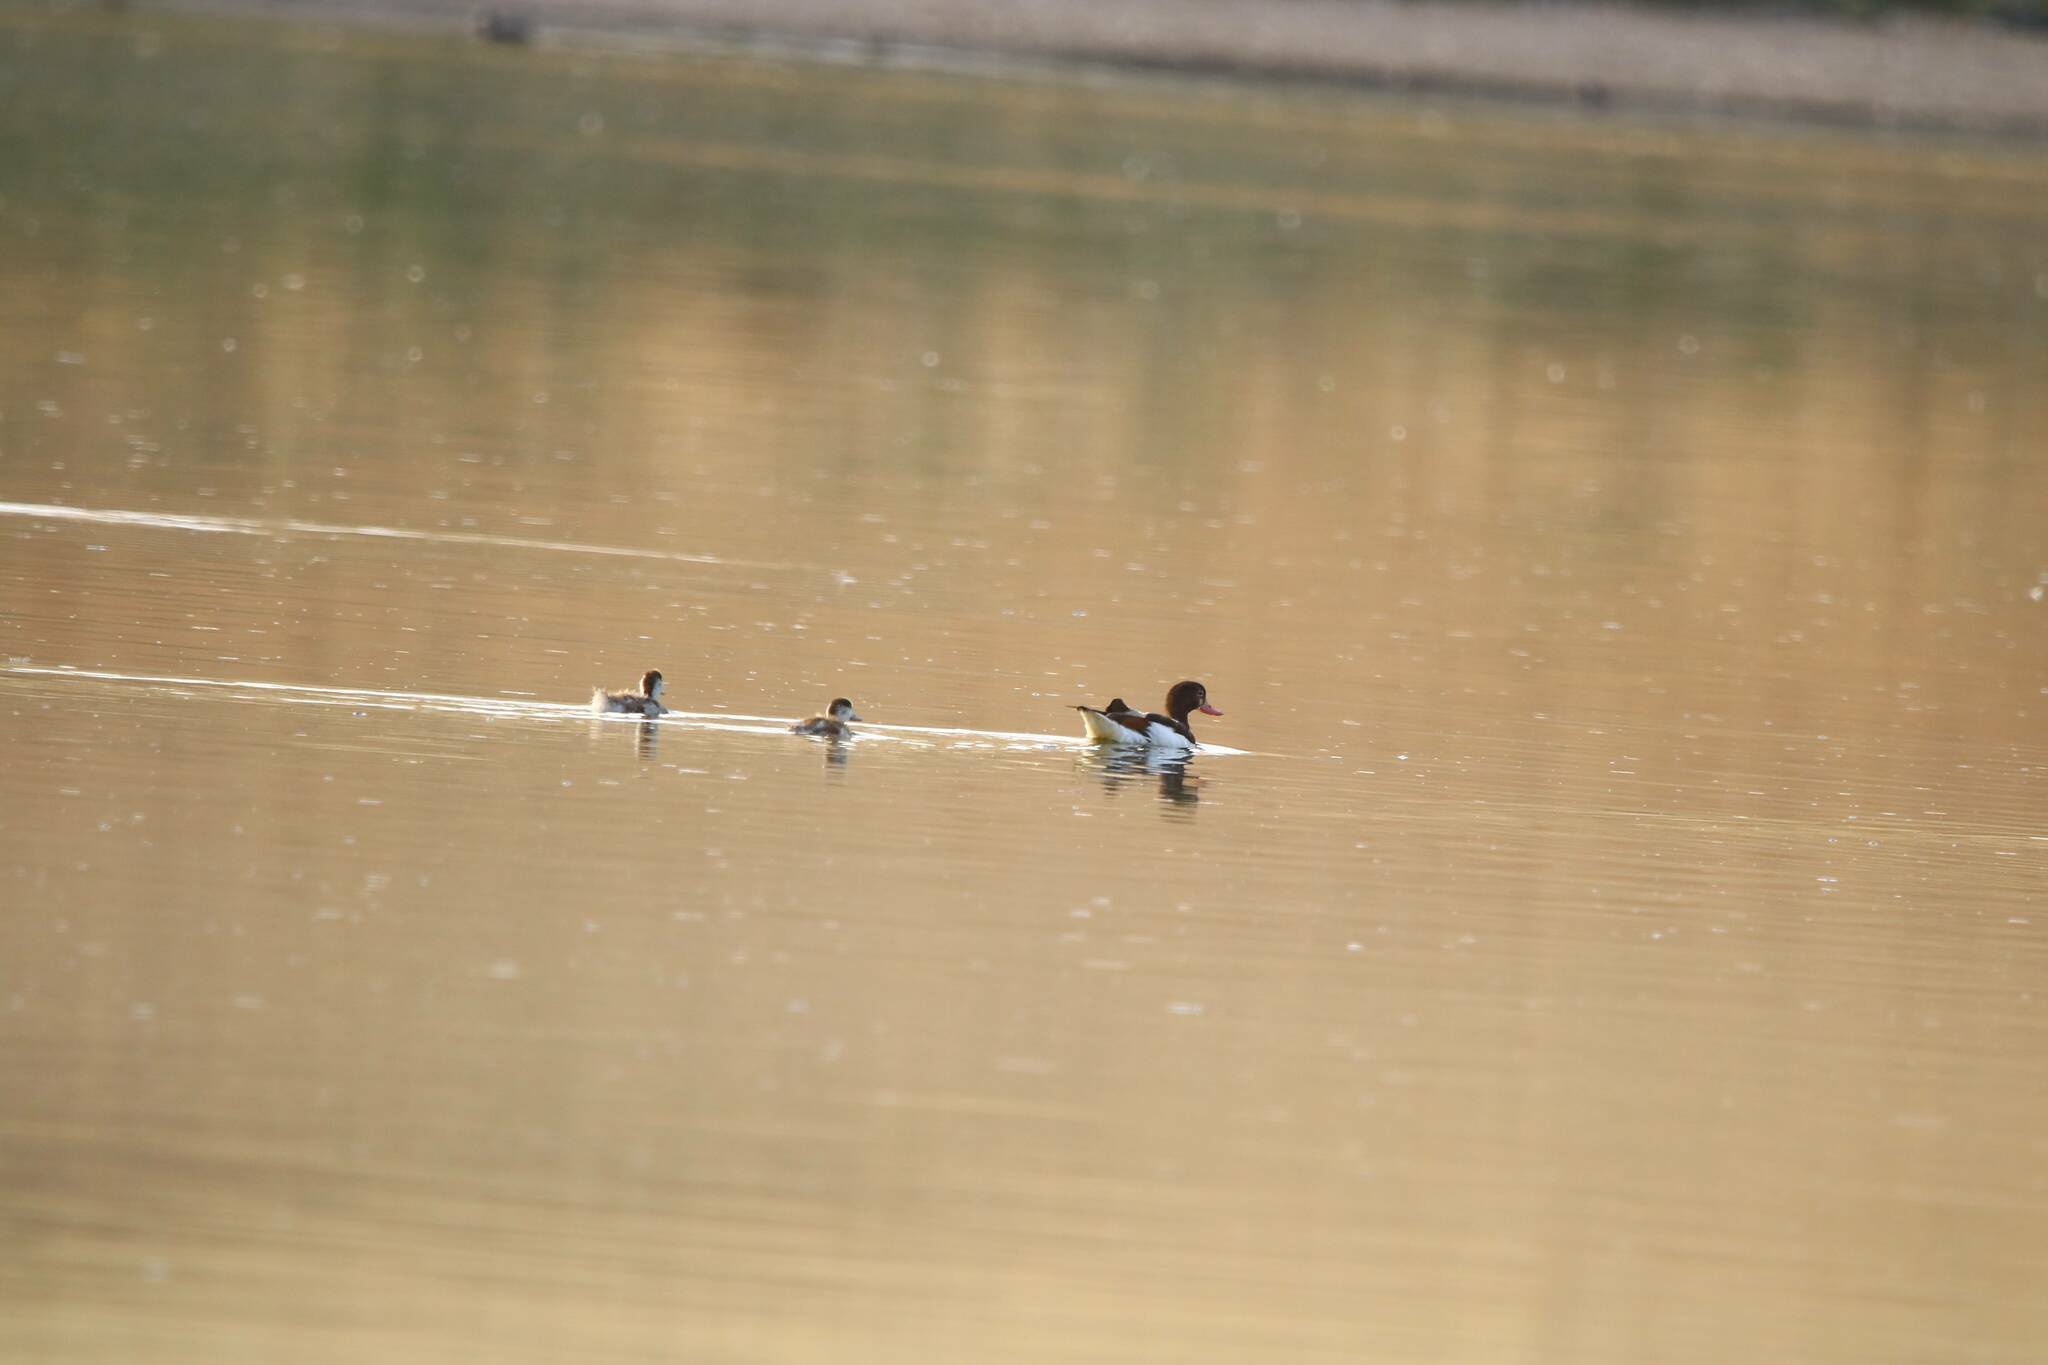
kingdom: Animalia
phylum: Chordata
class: Aves
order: Anseriformes
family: Anatidae
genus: Tadorna
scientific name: Tadorna tadorna
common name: Common shelduck
